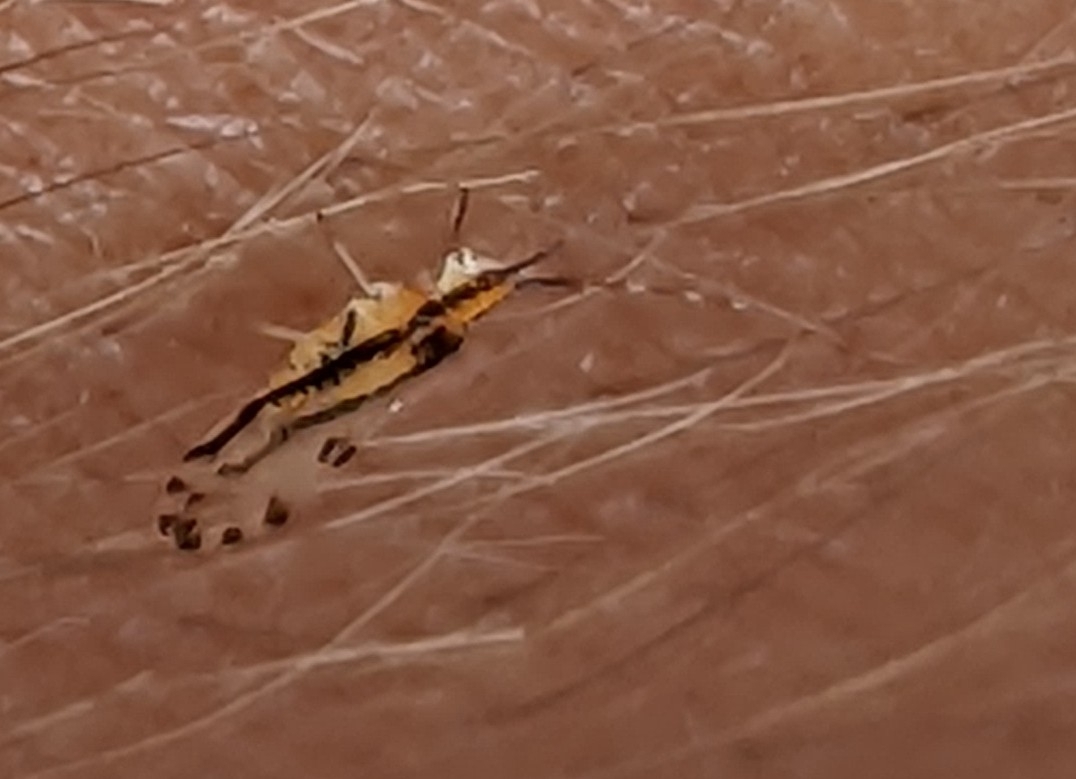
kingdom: Animalia
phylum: Arthropoda
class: Insecta
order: Hemiptera
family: Aphididae
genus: Eucallipterus
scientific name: Eucallipterus tiliae
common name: Aphid
